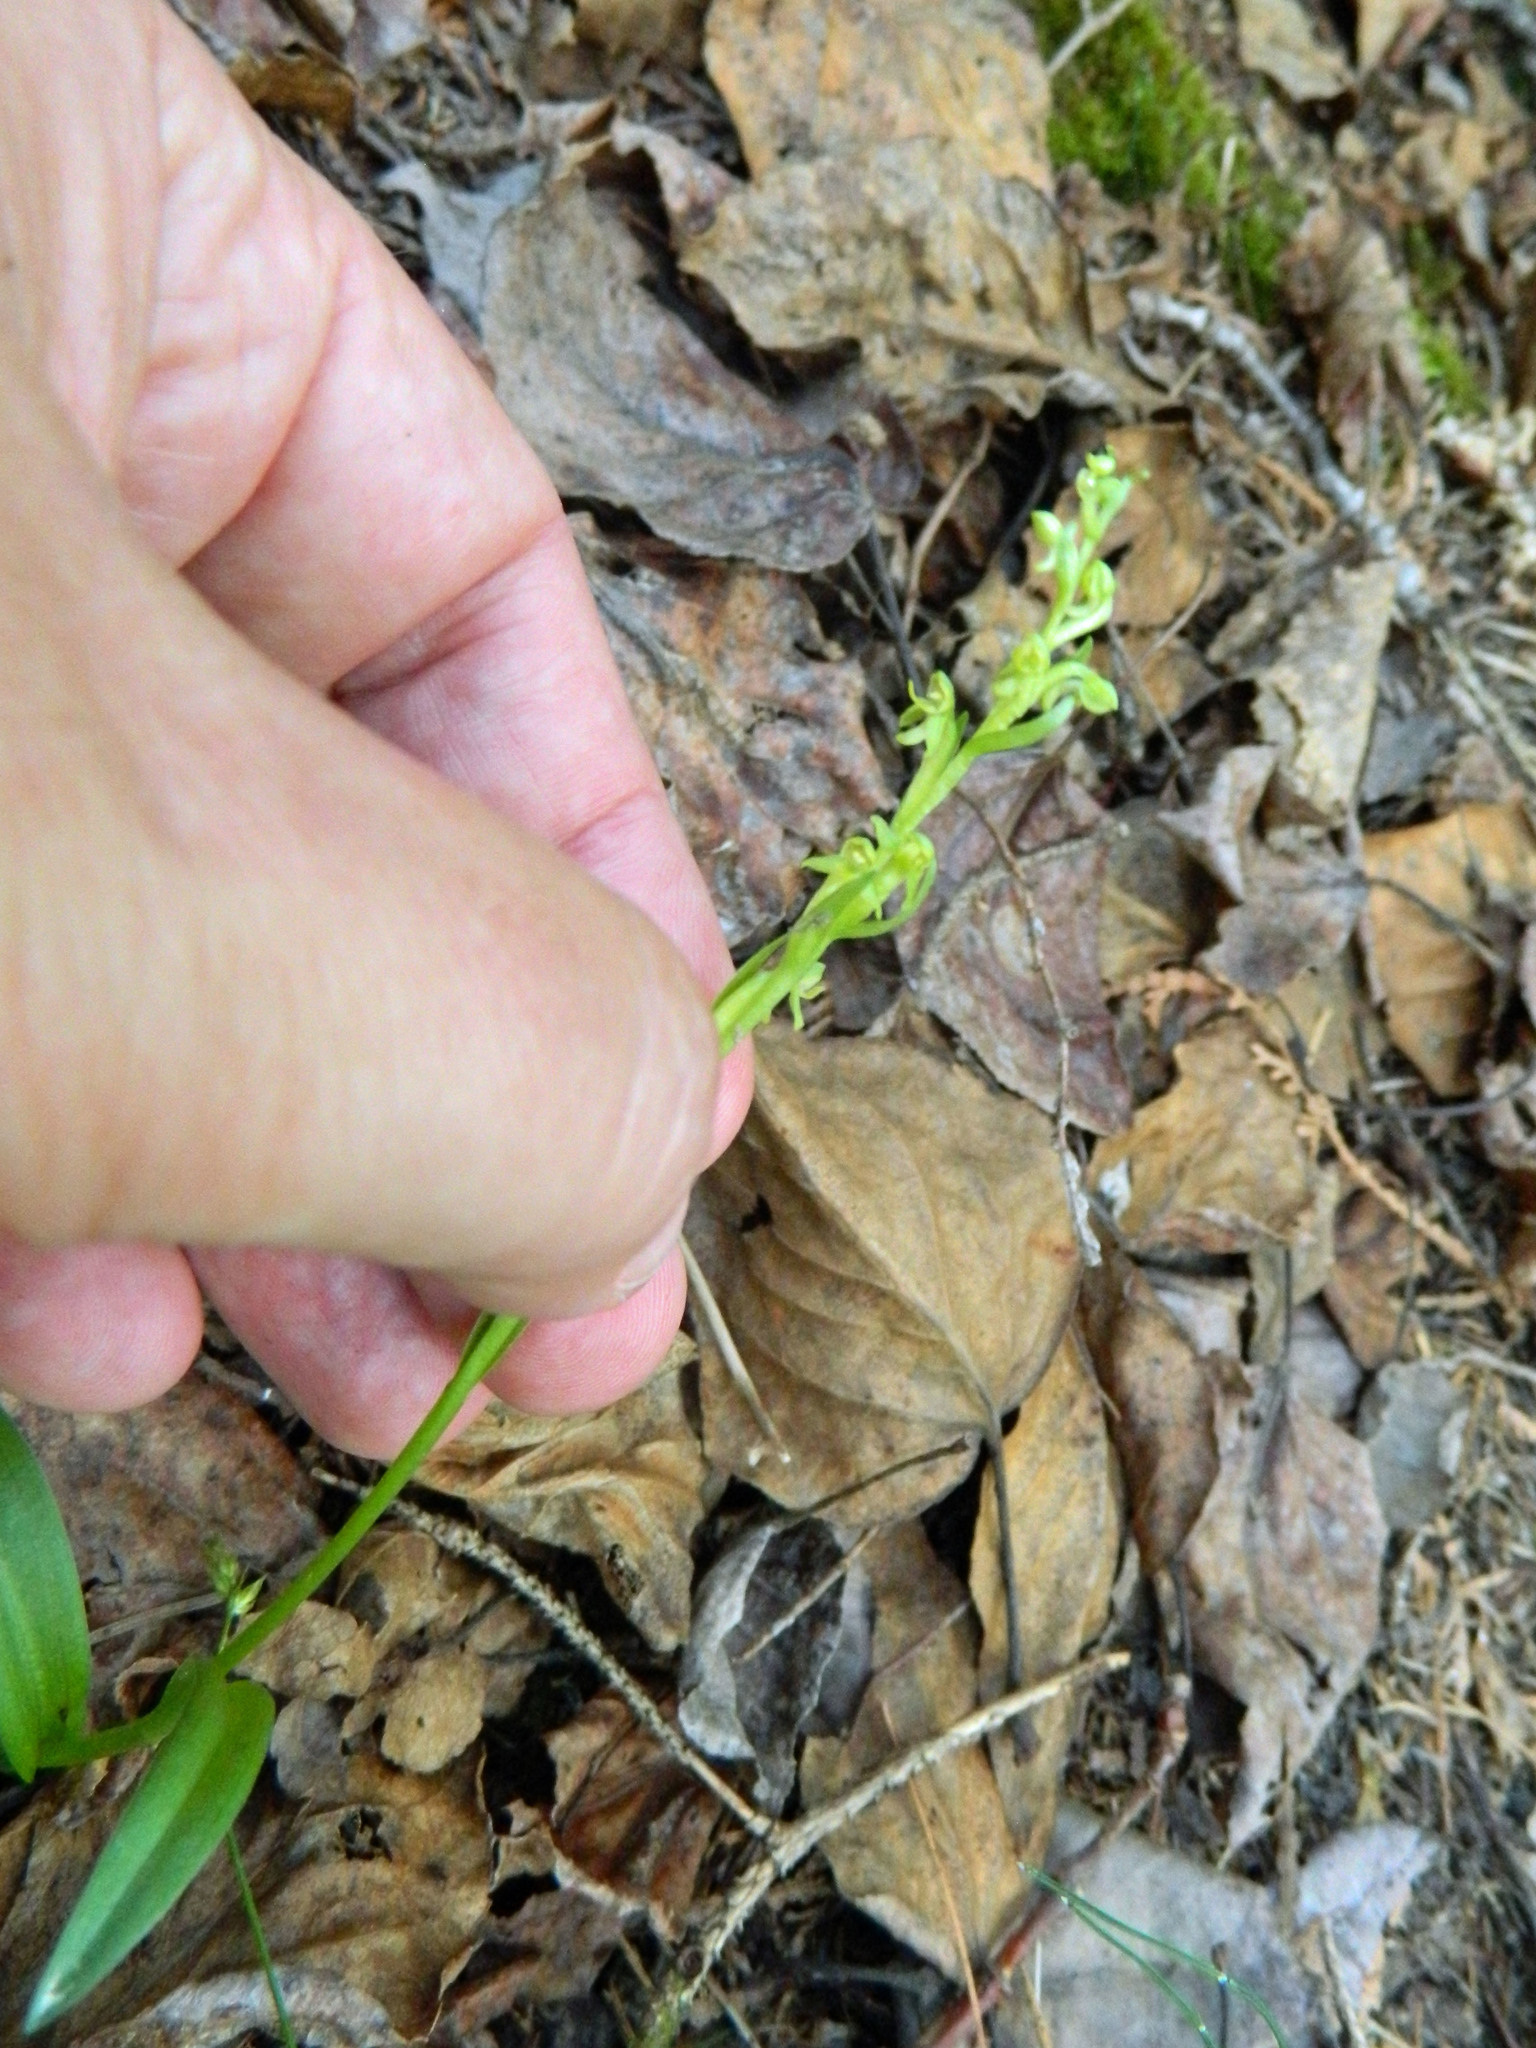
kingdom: Plantae
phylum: Tracheophyta
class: Liliopsida
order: Asparagales
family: Orchidaceae
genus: Platanthera
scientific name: Platanthera aquilonis
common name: Northern green orchid
